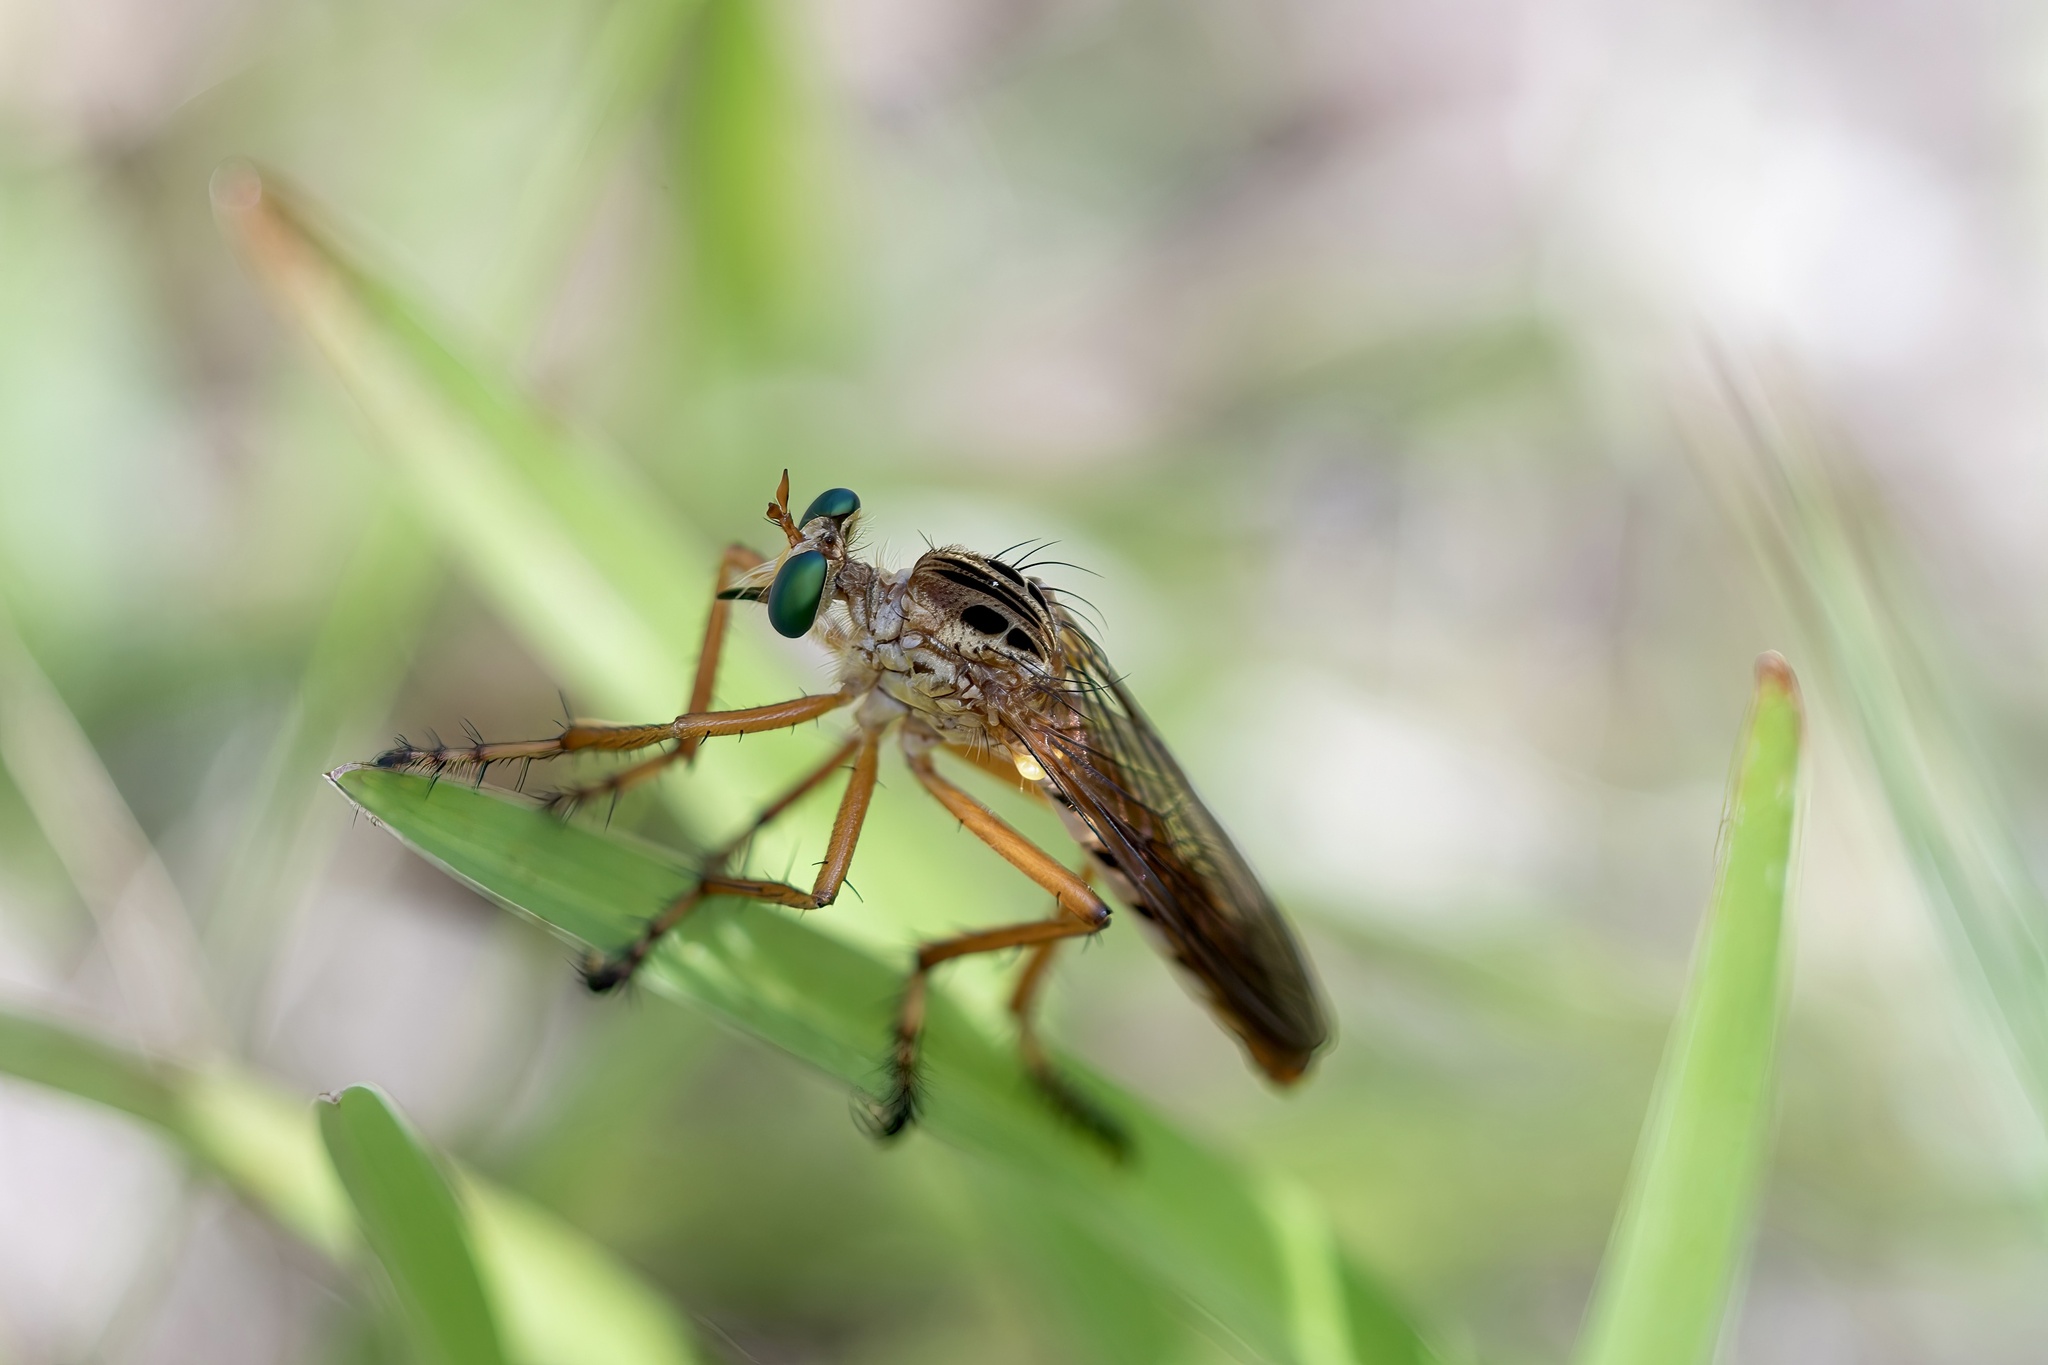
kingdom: Animalia
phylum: Arthropoda
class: Insecta
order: Diptera
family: Asilidae
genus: Diogmites
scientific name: Diogmites esuriens
